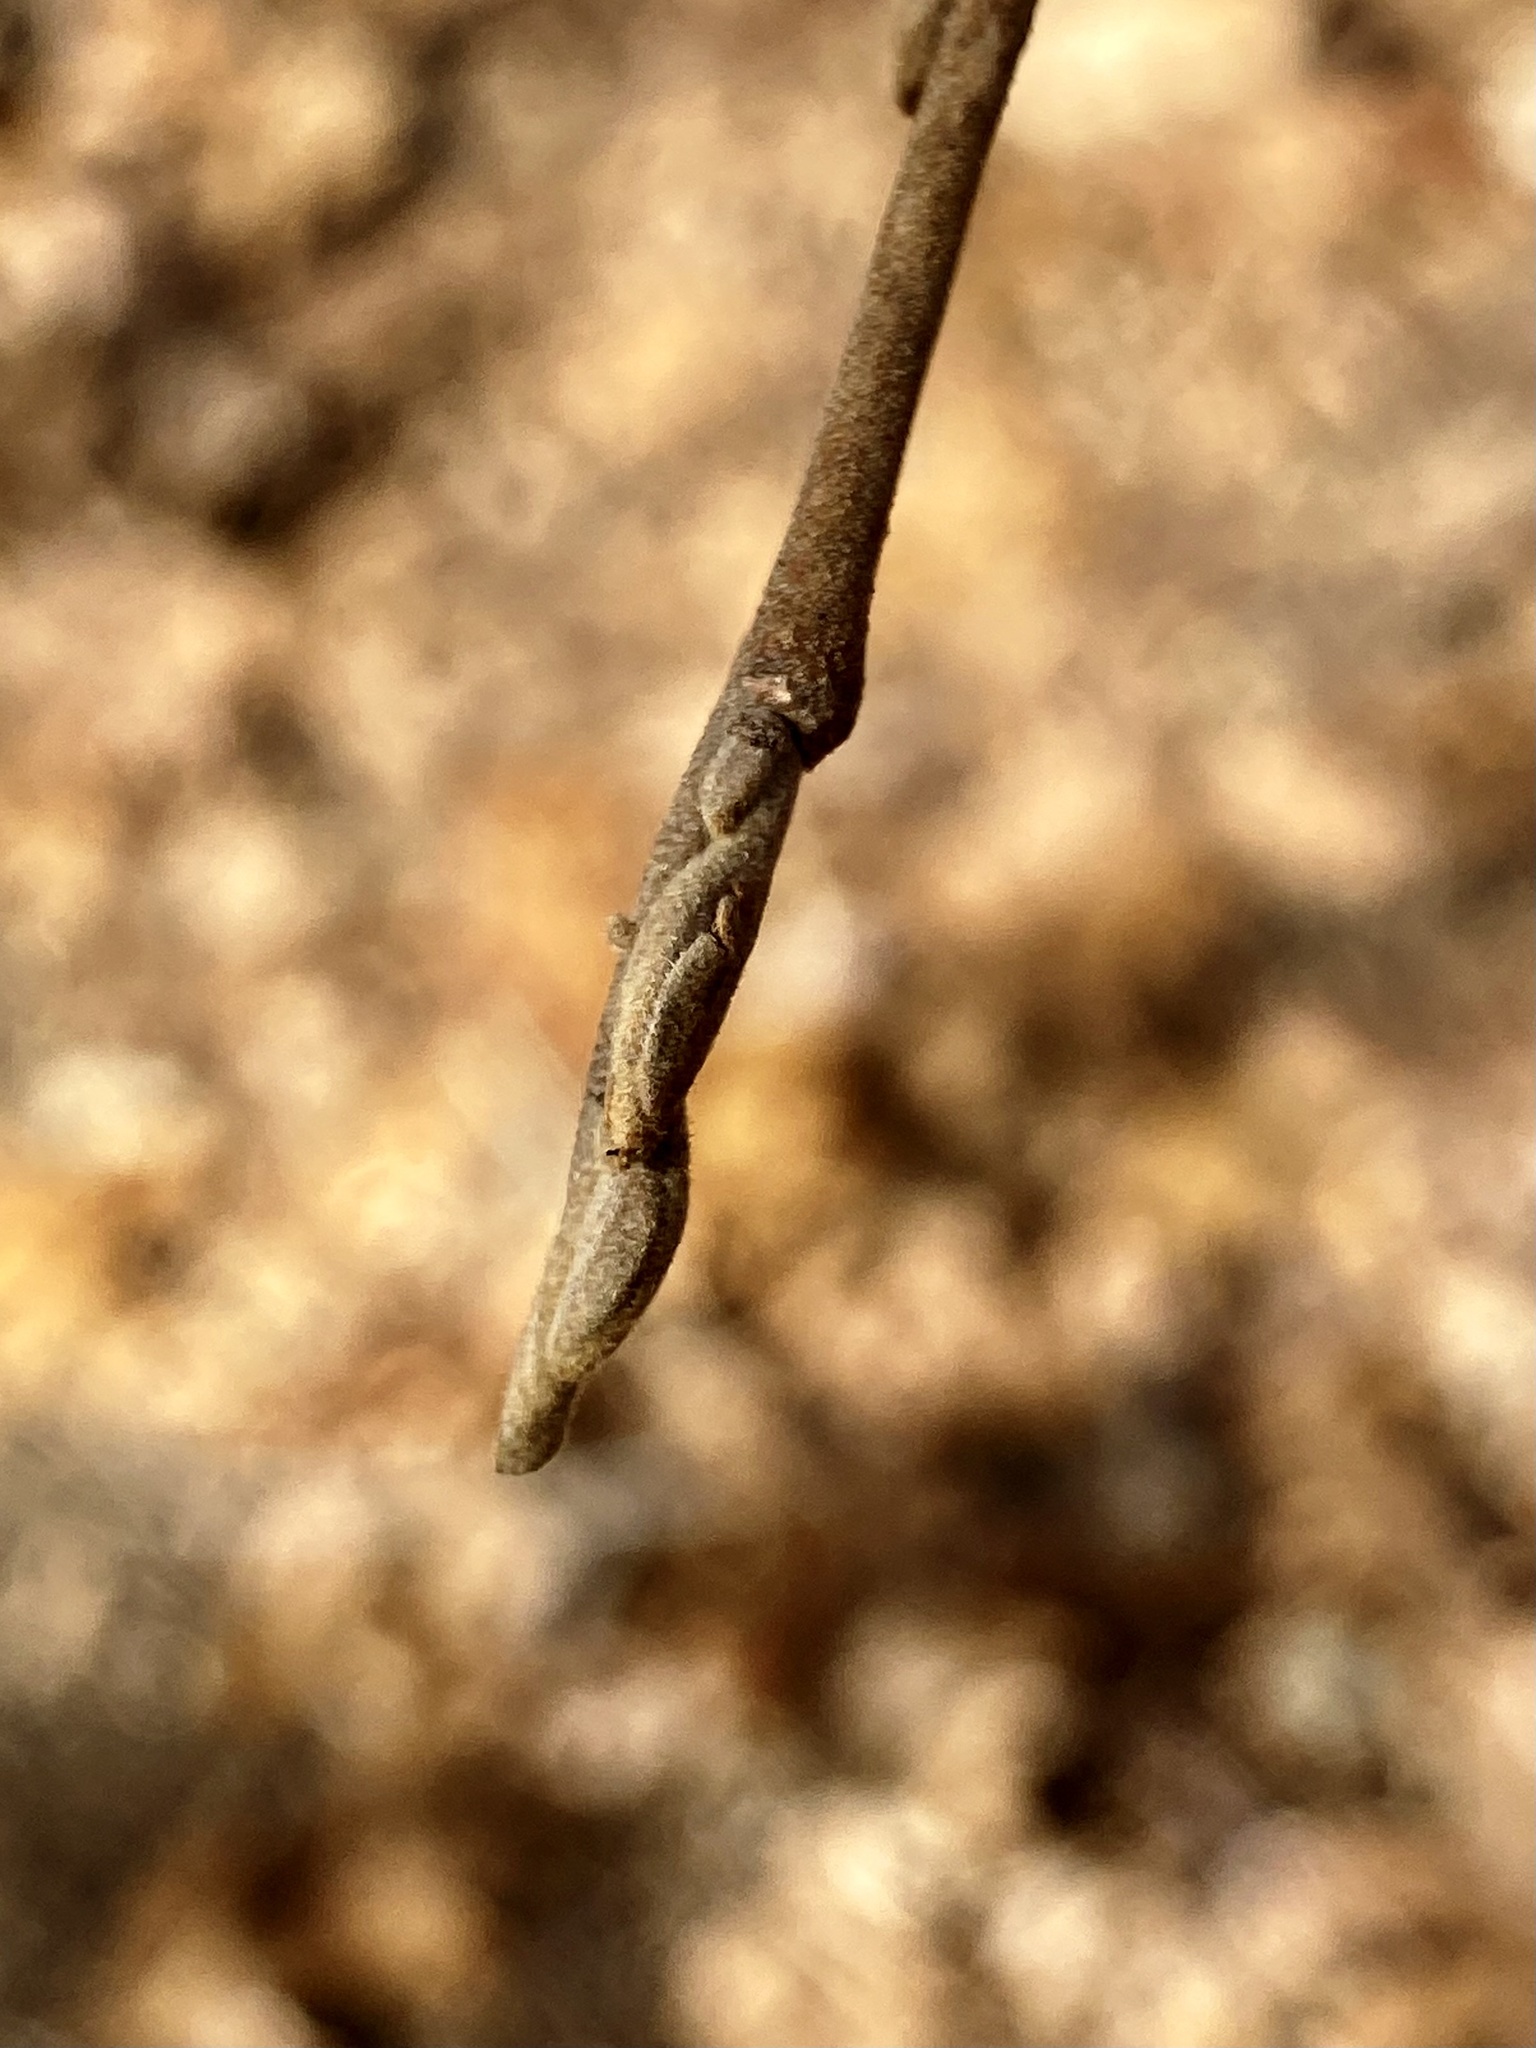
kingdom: Plantae
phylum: Tracheophyta
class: Magnoliopsida
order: Saxifragales
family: Hamamelidaceae
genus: Hamamelis
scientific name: Hamamelis virginiana
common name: Witch-hazel
